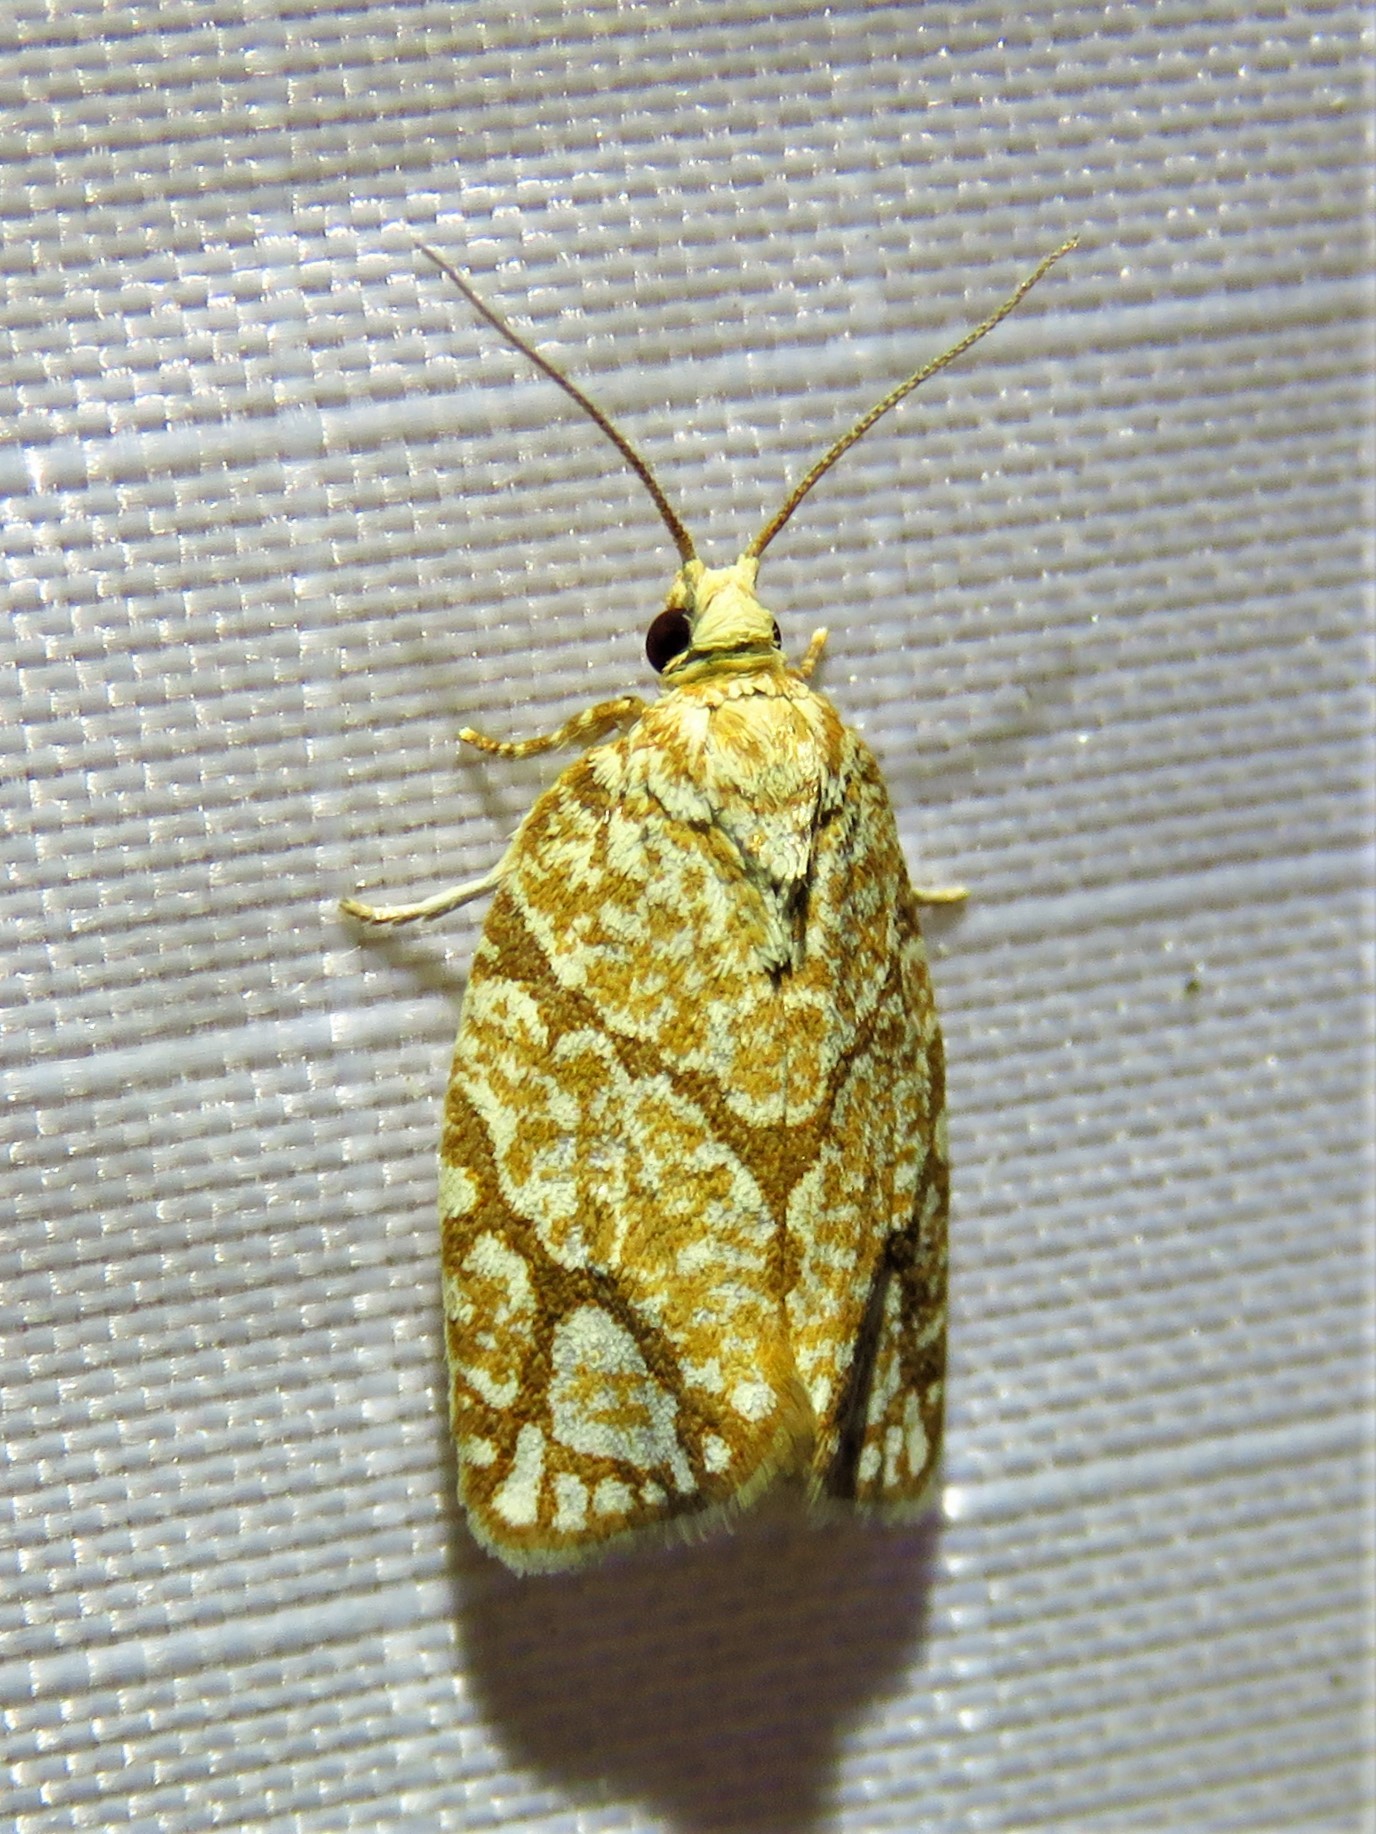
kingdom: Animalia
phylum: Arthropoda
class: Insecta
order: Lepidoptera
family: Tortricidae
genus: Argyrotaenia
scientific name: Argyrotaenia quercifoliana
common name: Yellow-winged oak leafroller moth
